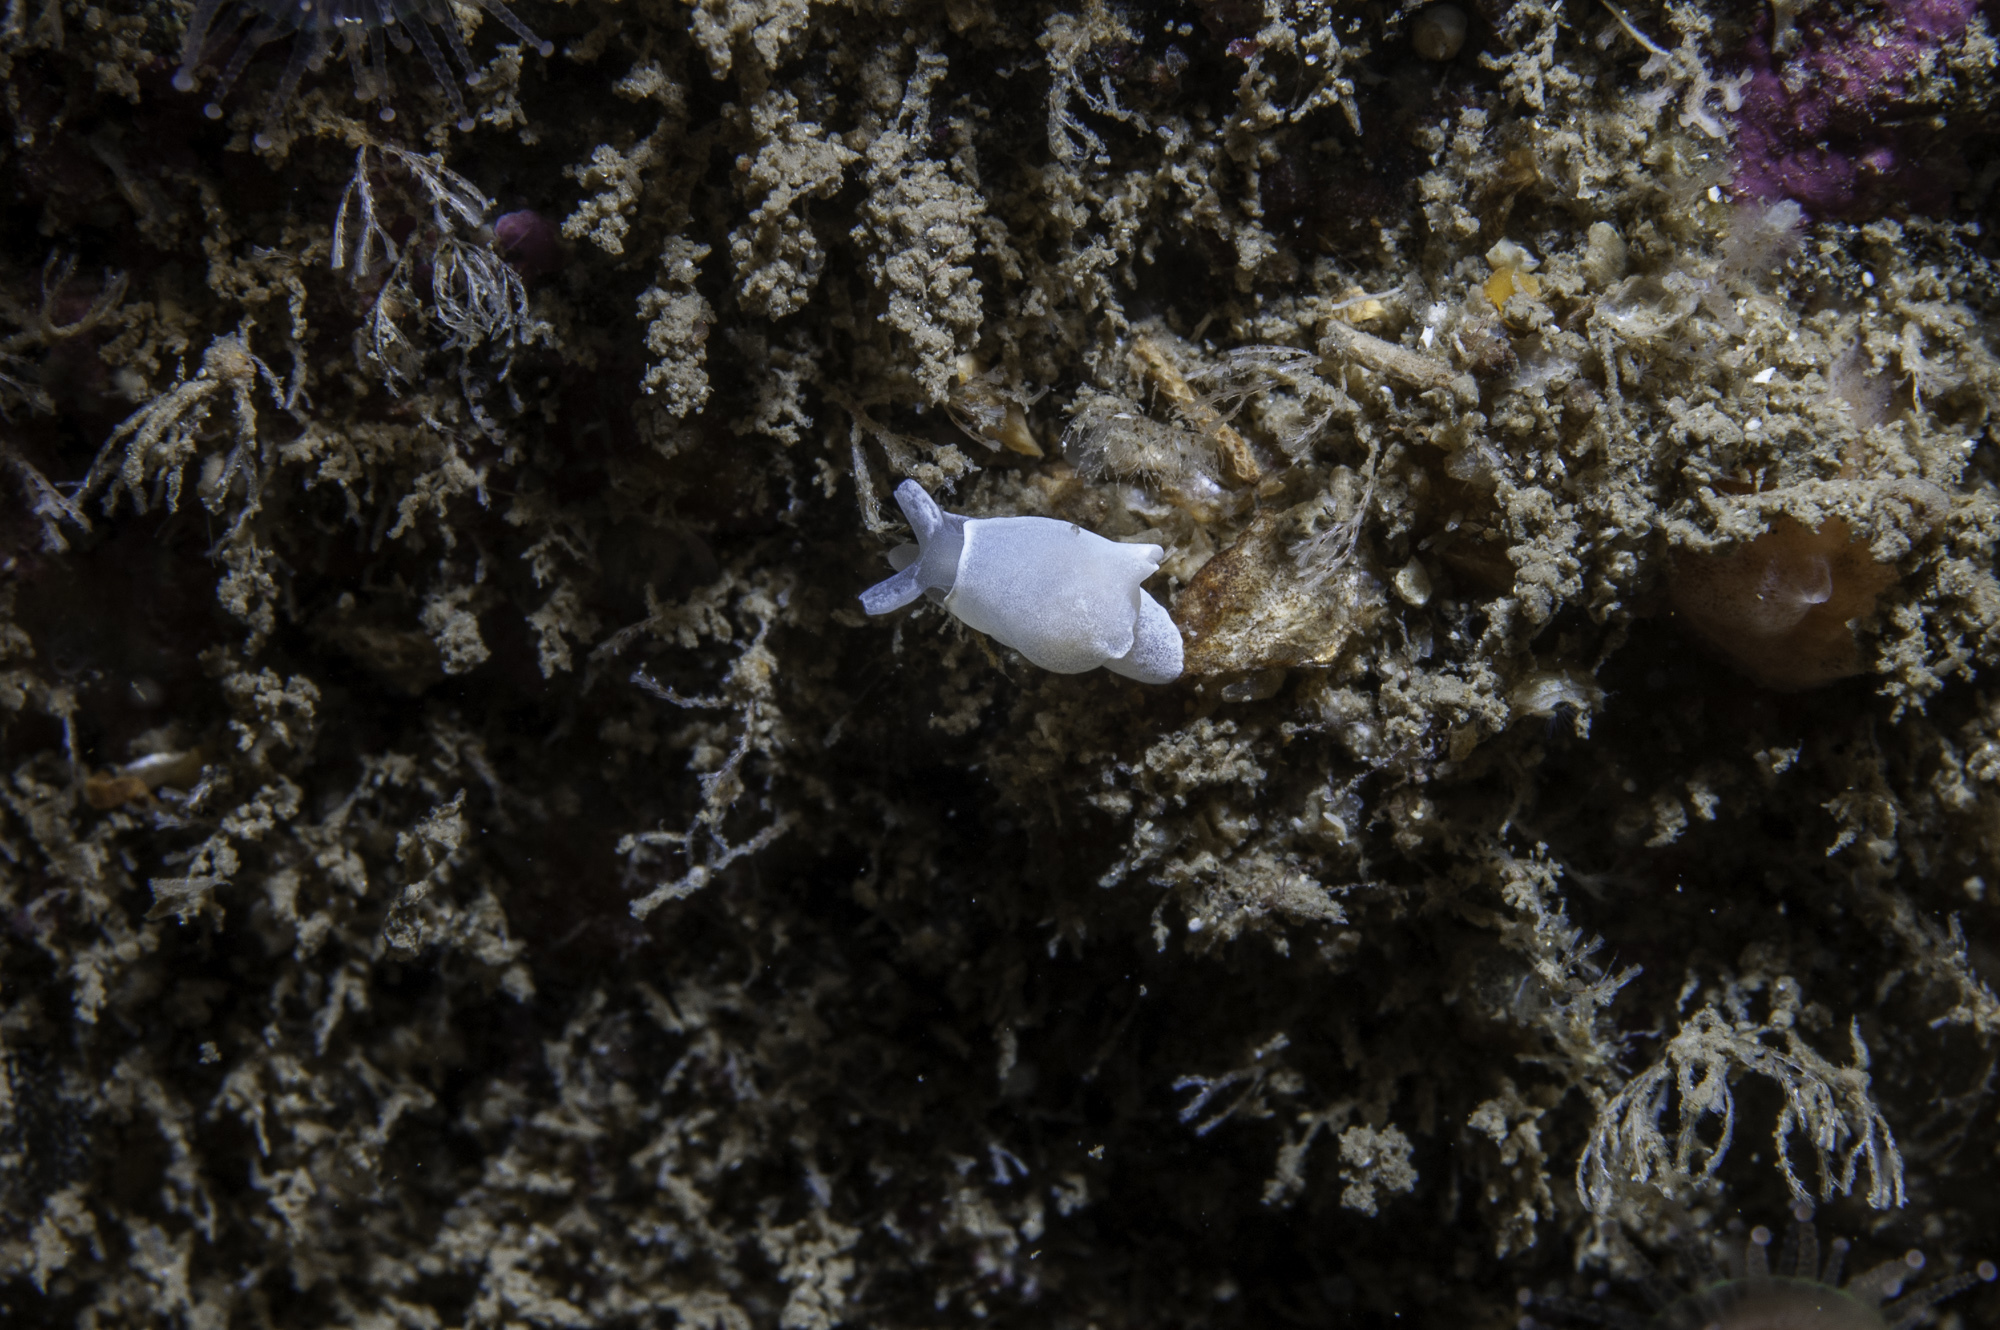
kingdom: Animalia
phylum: Mollusca
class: Gastropoda
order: Cephalaspidea
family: Colpodaspididae
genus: Colpodaspis
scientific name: Colpodaspis pusilla
